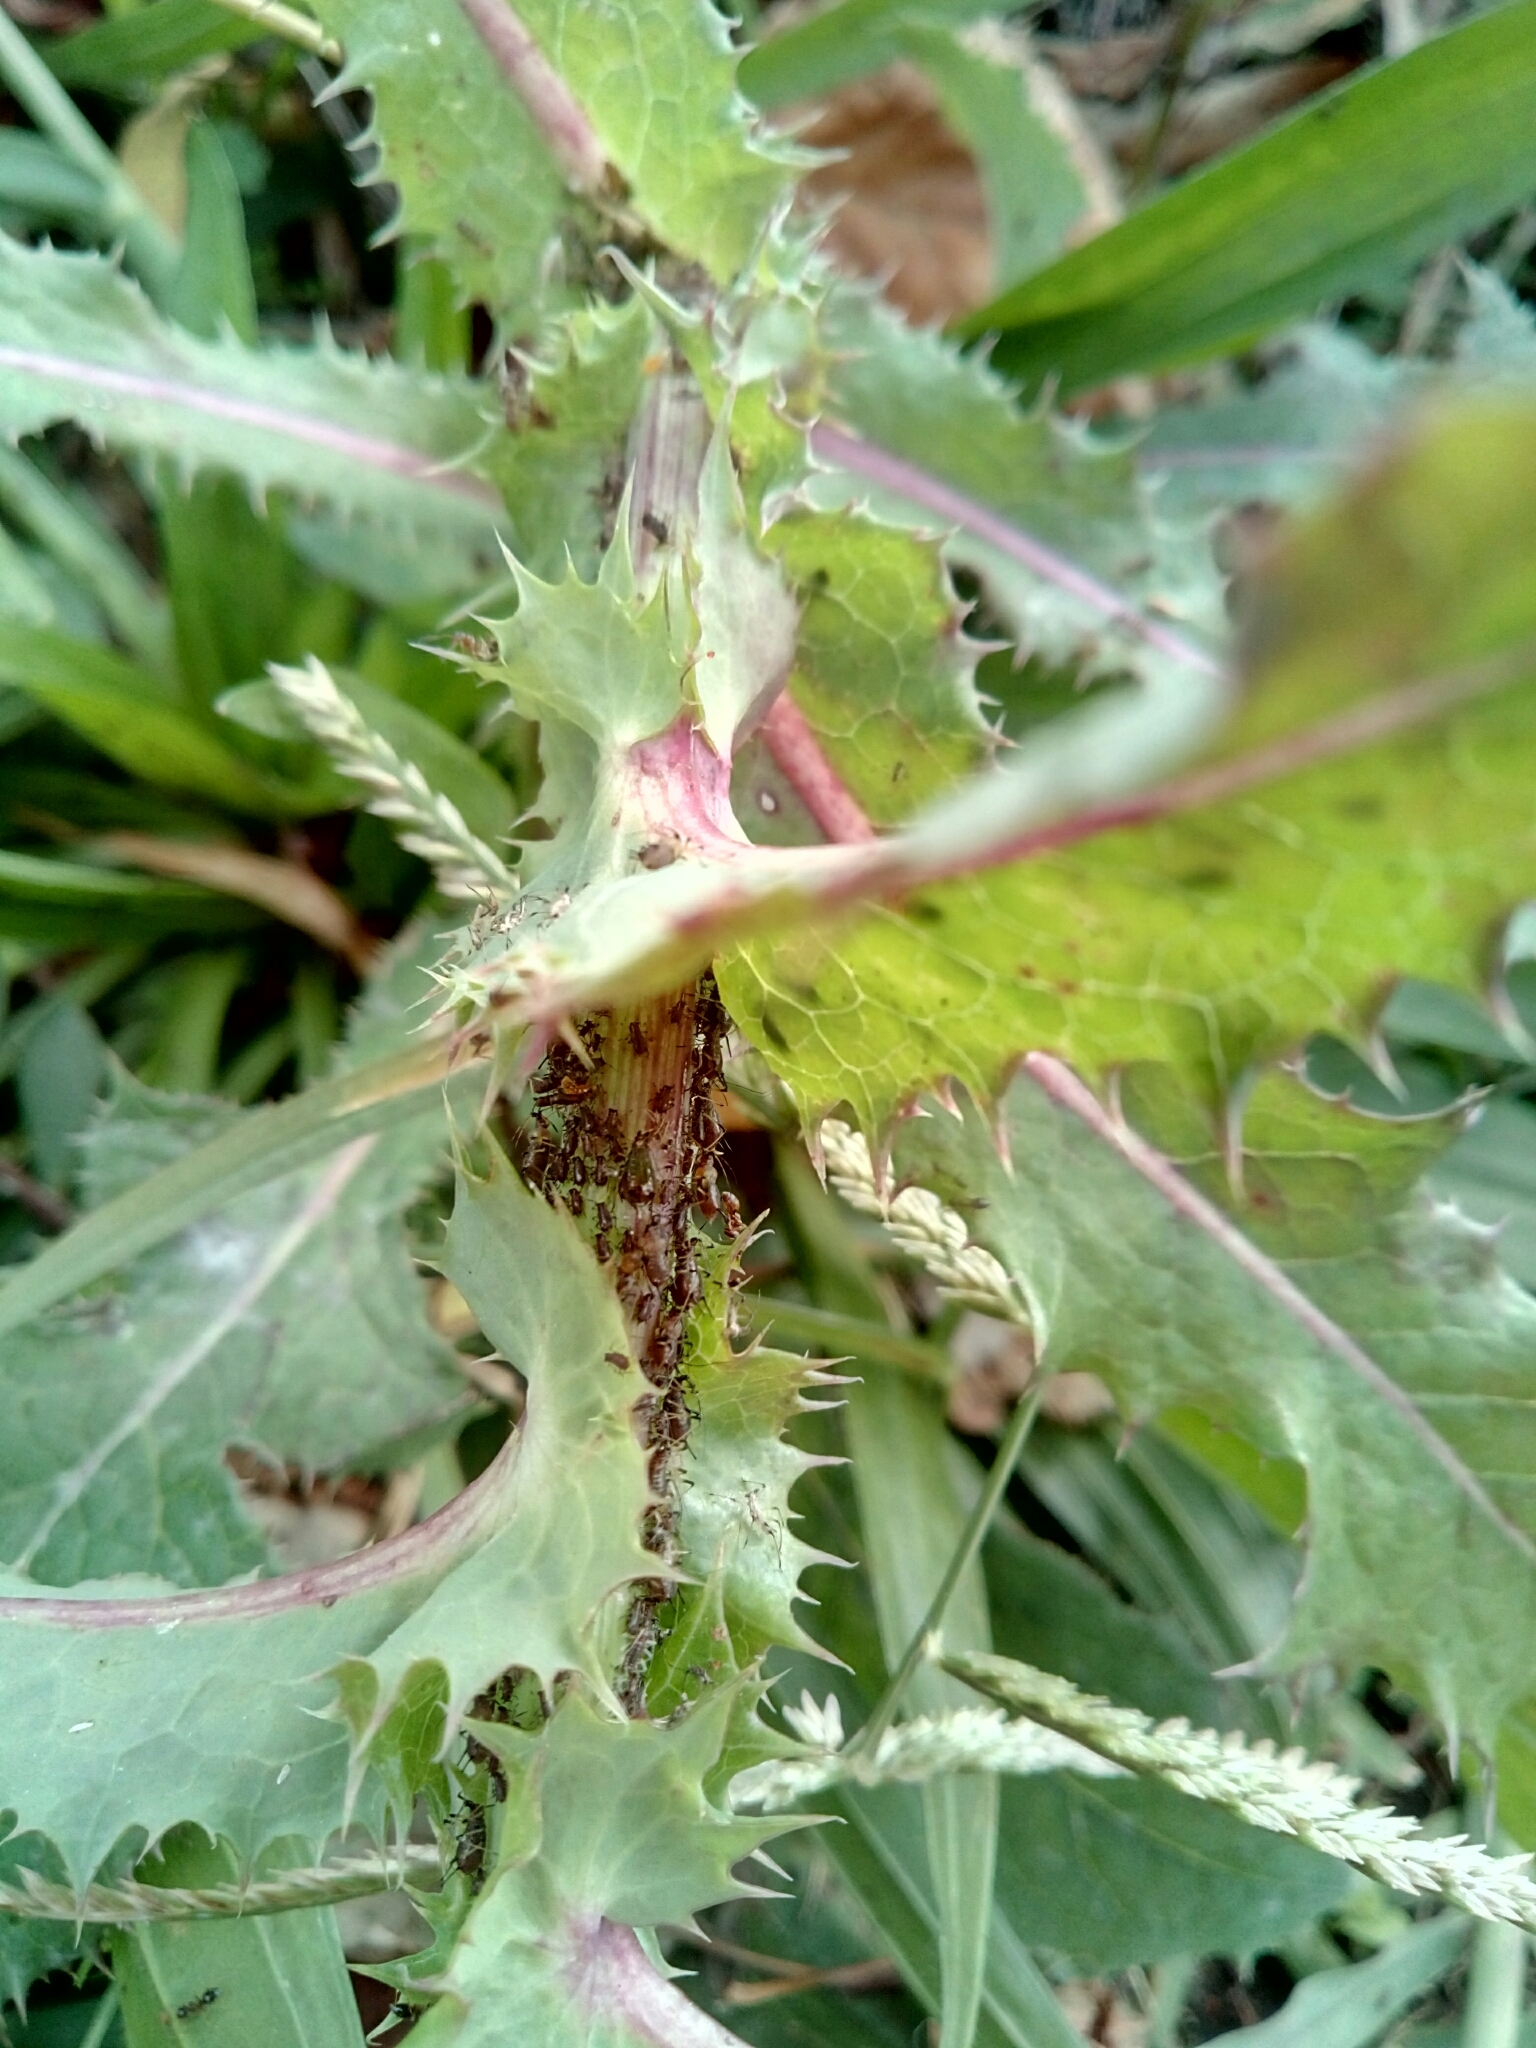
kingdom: Animalia
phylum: Arthropoda
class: Insecta
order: Hemiptera
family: Aphididae
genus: Uroleucon
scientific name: Uroleucon
